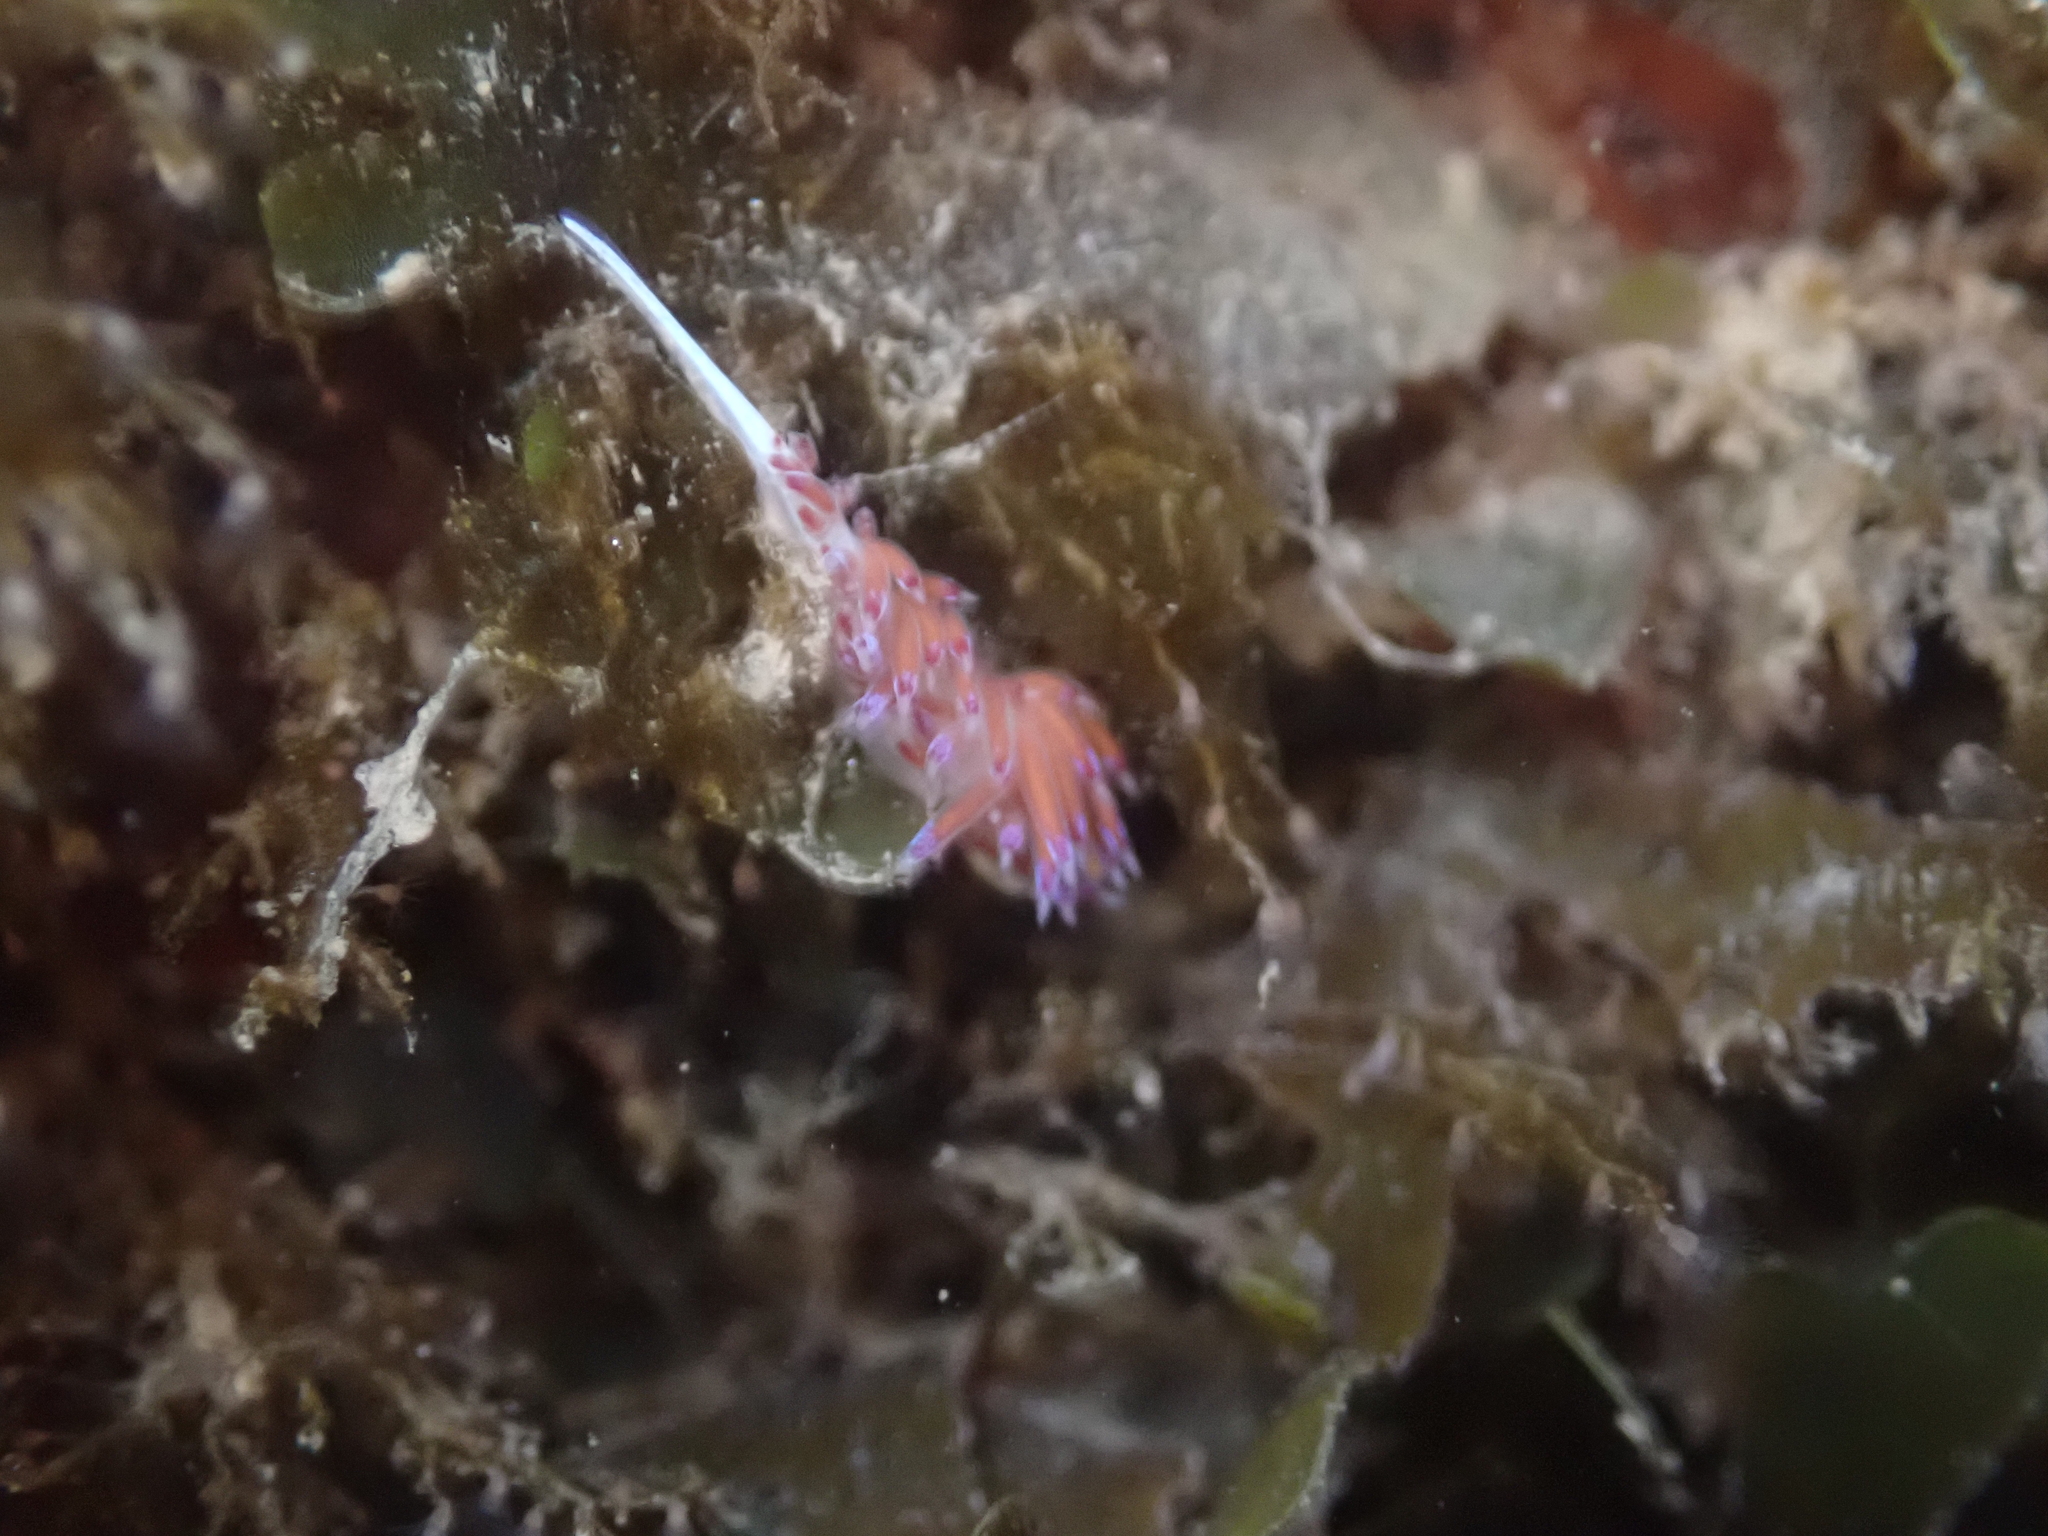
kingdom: Animalia
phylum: Mollusca
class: Gastropoda
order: Nudibranchia
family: Facelinidae
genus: Cratena
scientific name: Cratena peregrina
